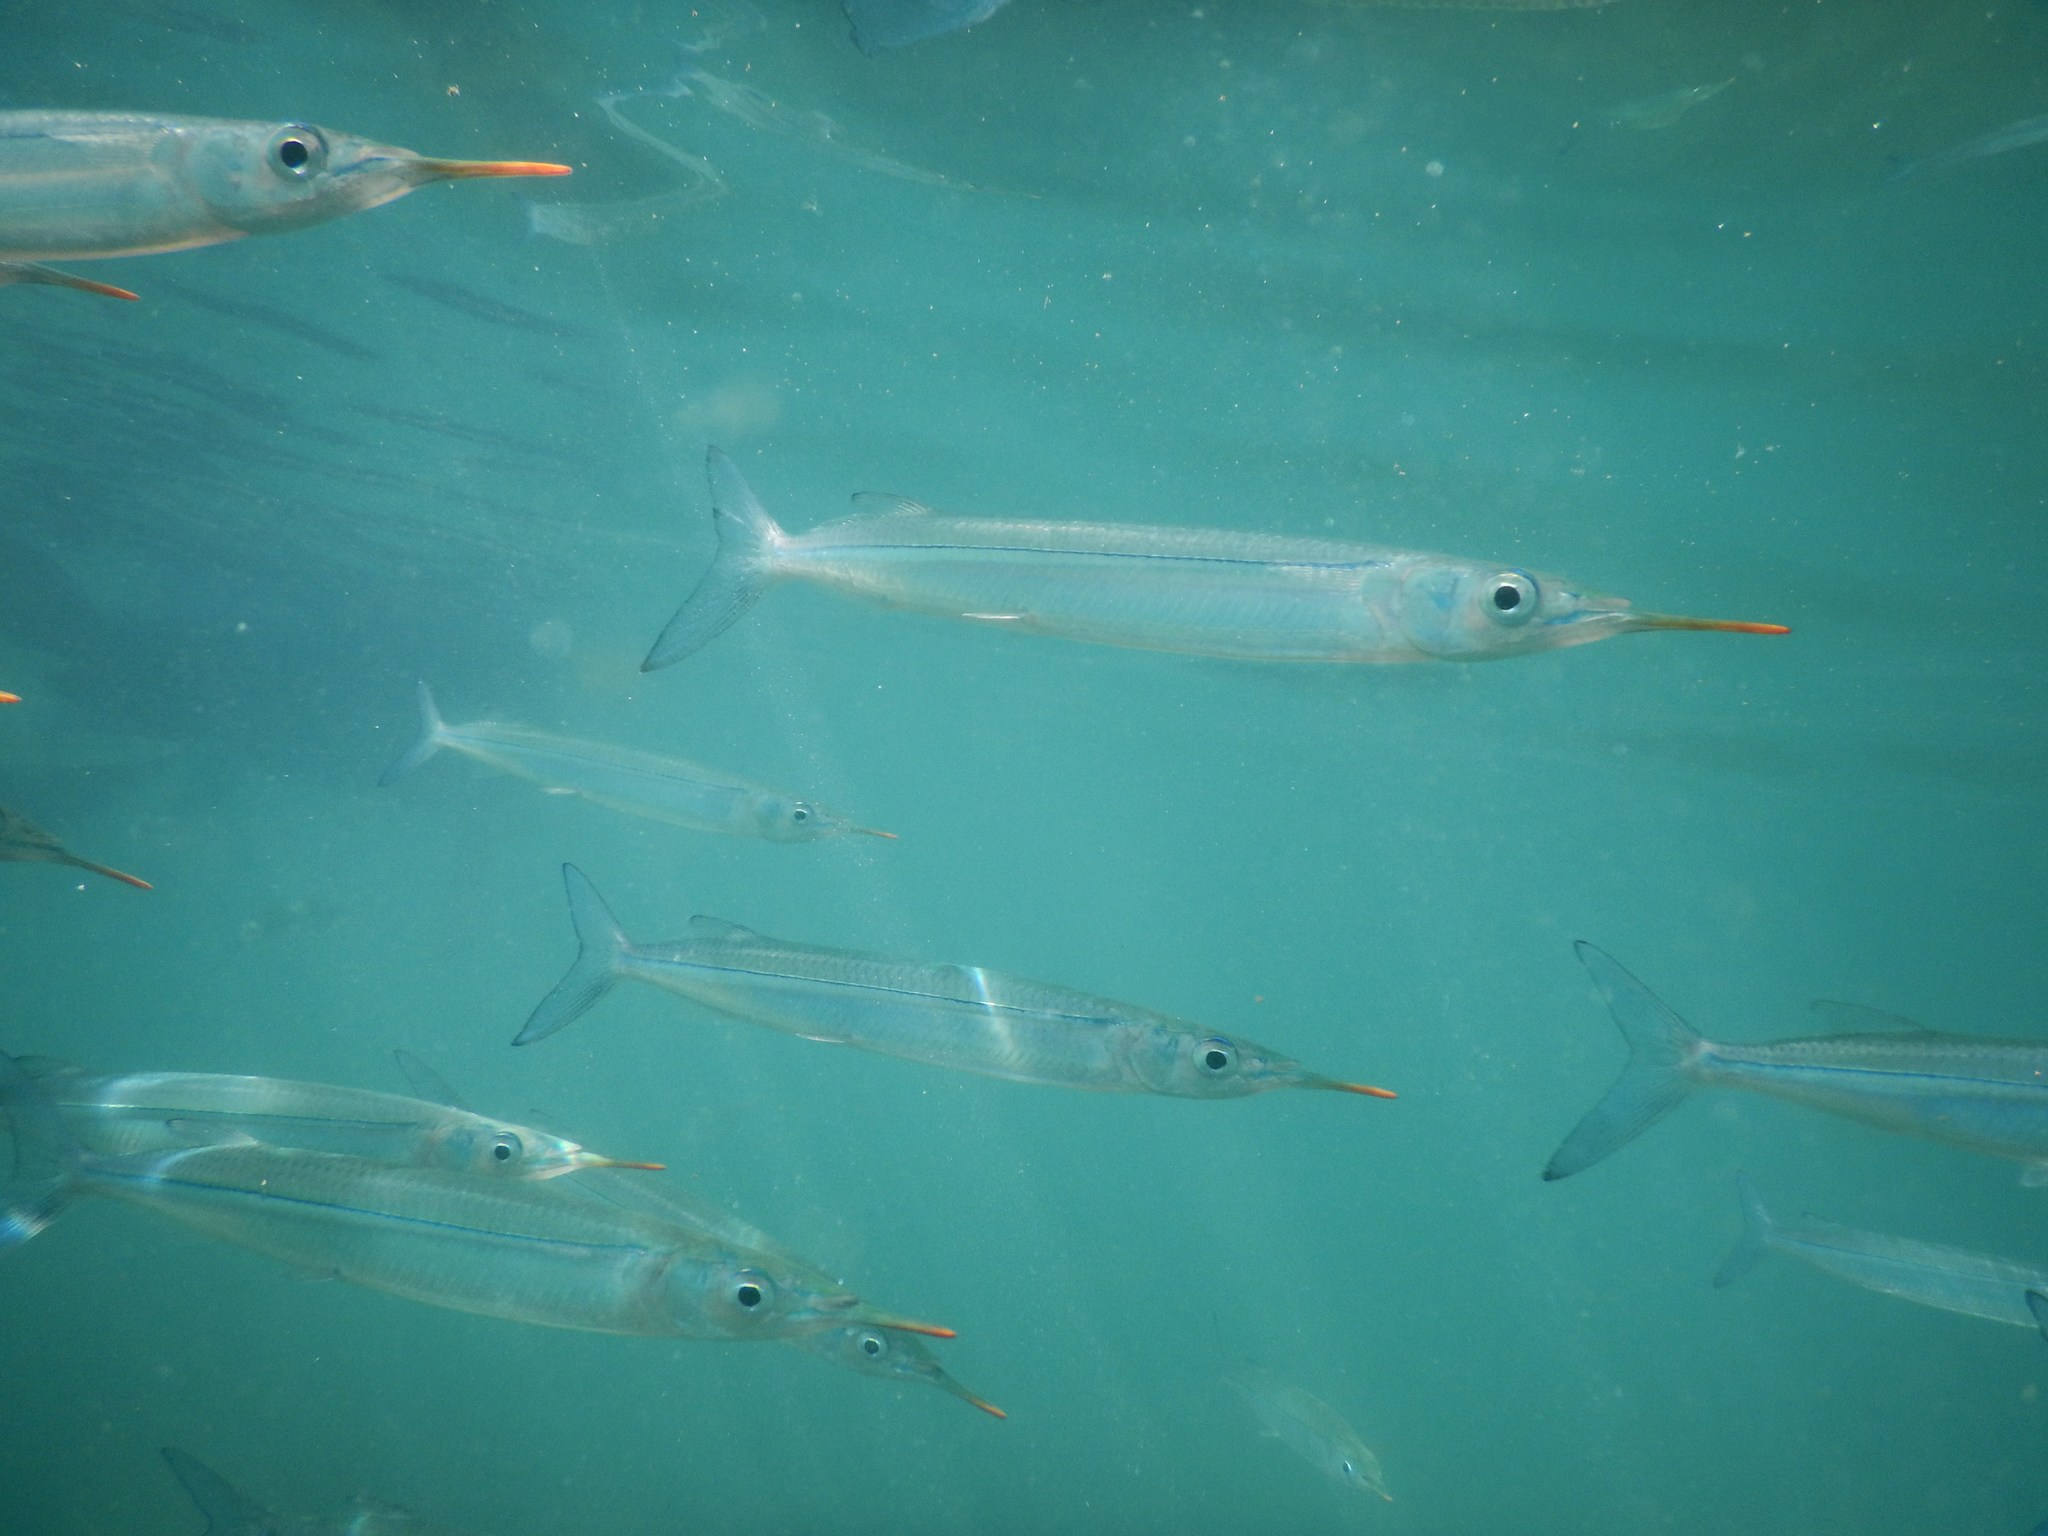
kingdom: Animalia
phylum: Chordata
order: Beloniformes
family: Hemiramphidae
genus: Hyporhamphus
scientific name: Hyporhamphus quoyi
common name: Quoy's garfish
